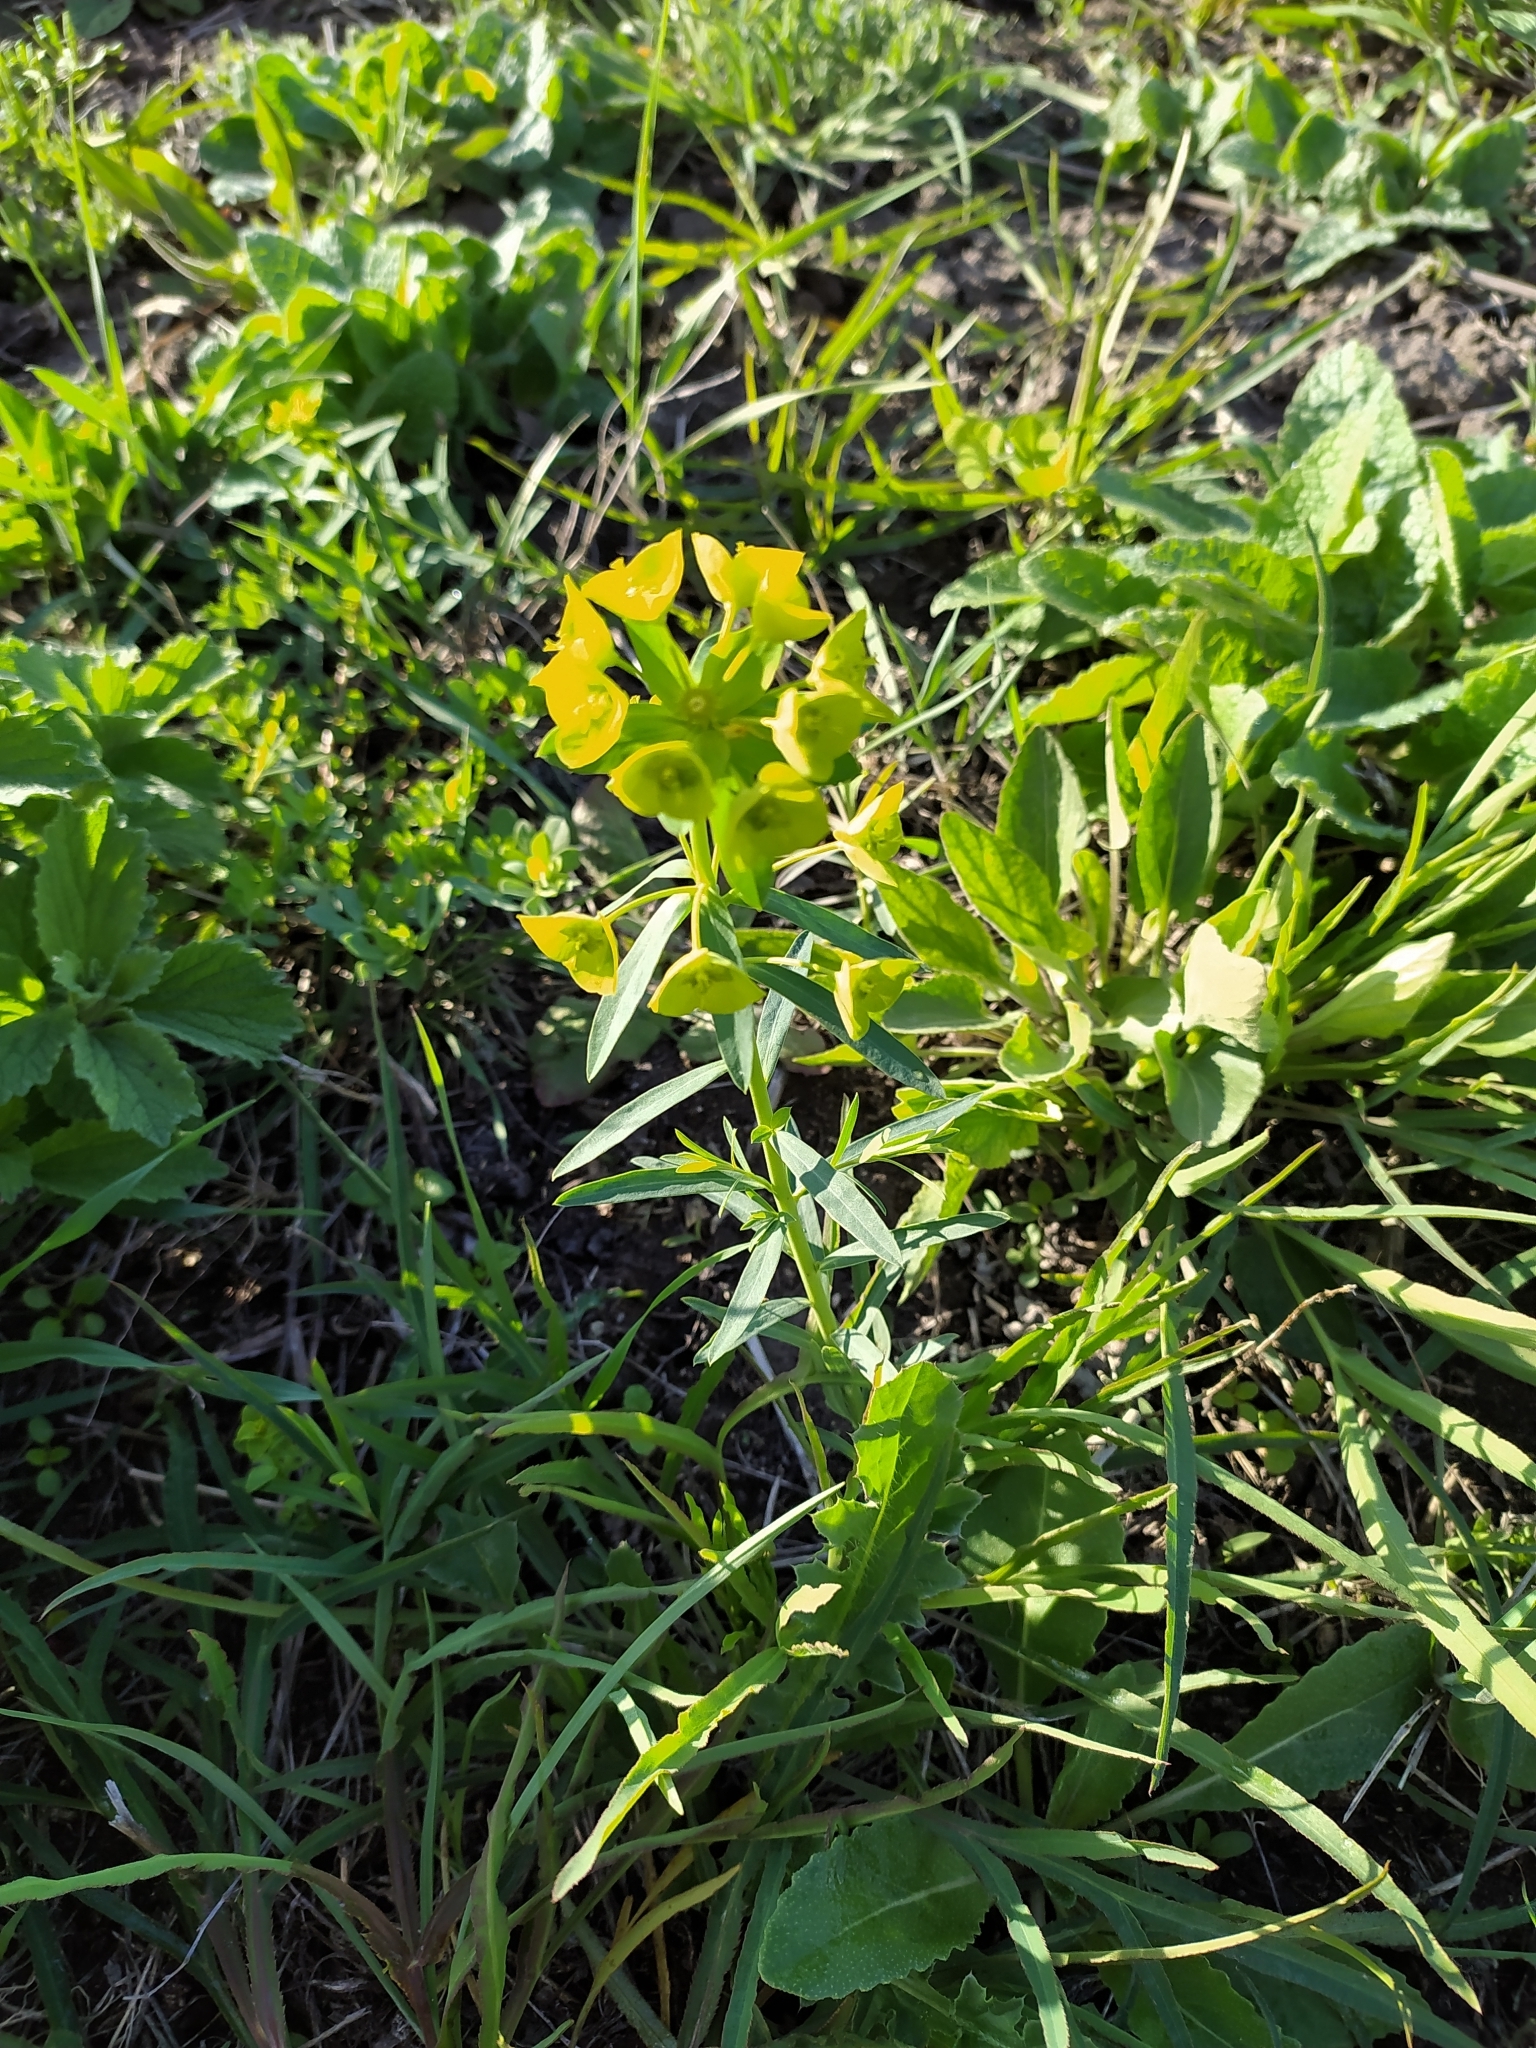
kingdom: Plantae
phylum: Tracheophyta
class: Magnoliopsida
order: Malpighiales
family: Euphorbiaceae
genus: Euphorbia
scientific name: Euphorbia virgata
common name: Leafy spurge
